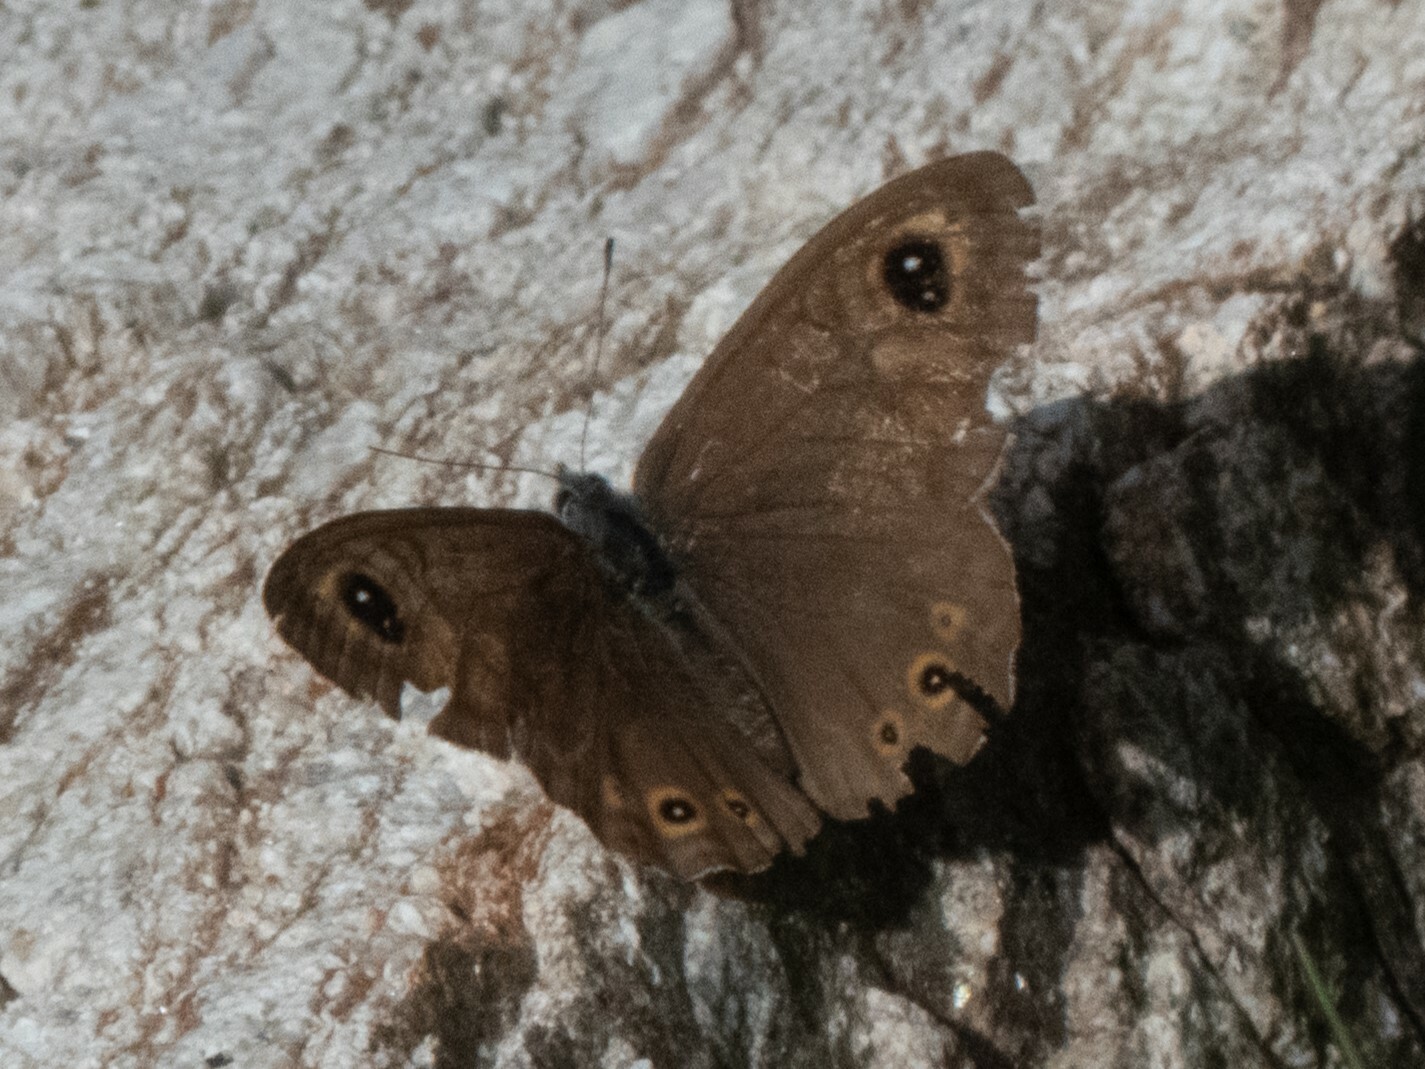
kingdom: Animalia
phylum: Arthropoda
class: Insecta
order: Lepidoptera
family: Nymphalidae
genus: Pararge
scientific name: Pararge Lasiommata maera
